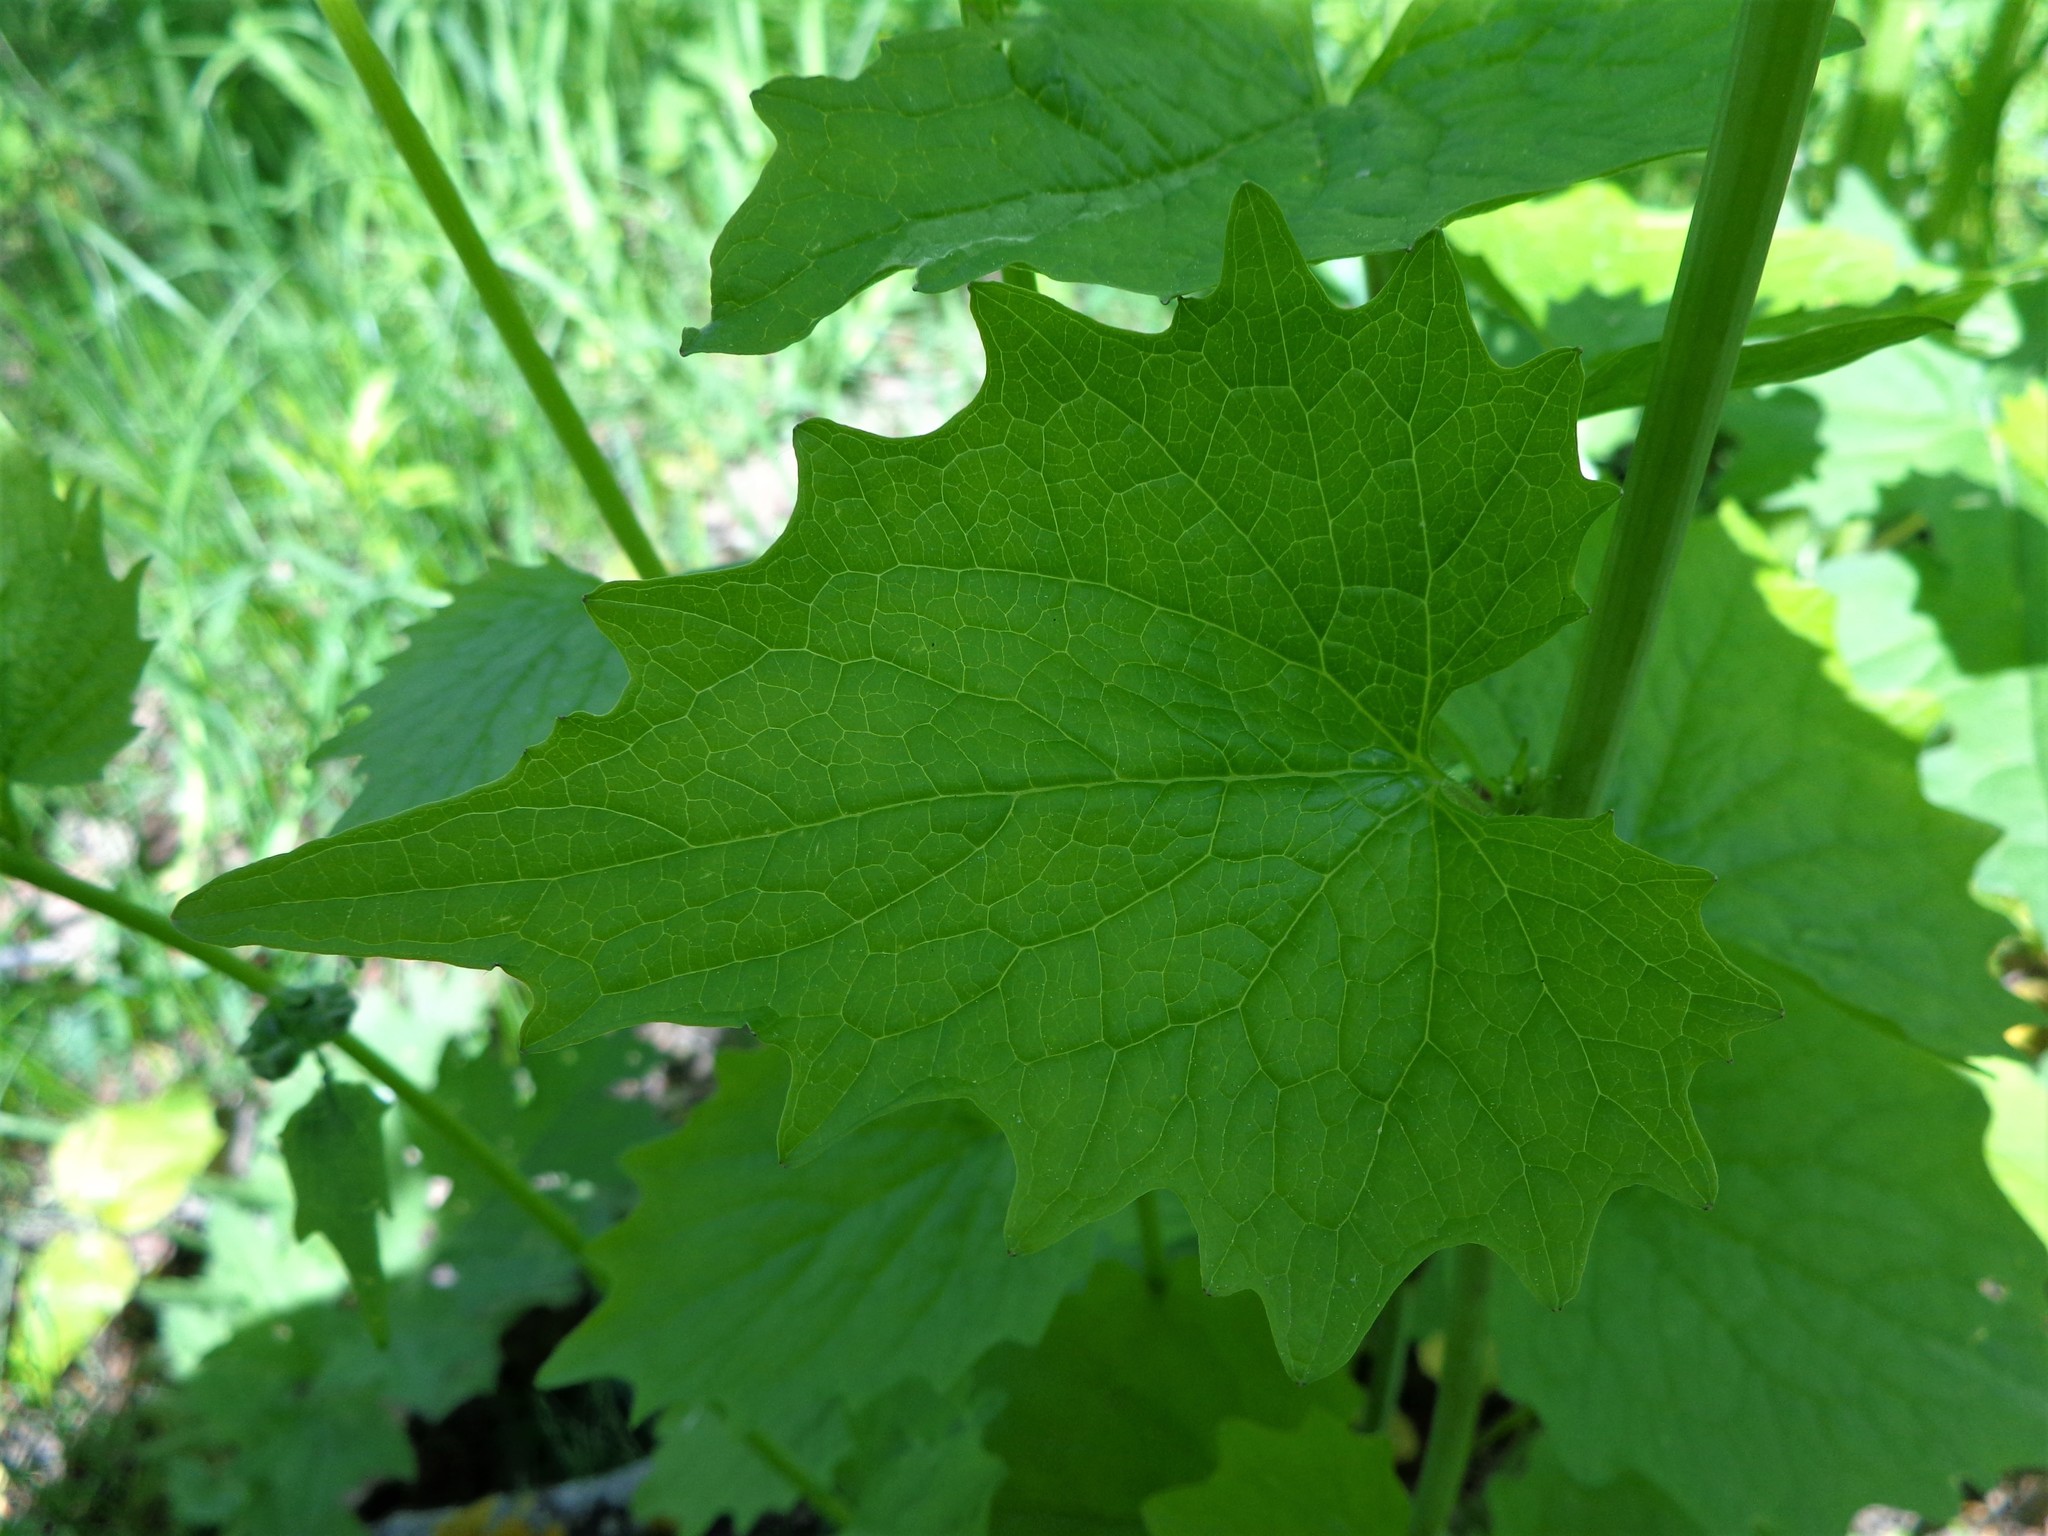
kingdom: Plantae
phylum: Tracheophyta
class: Magnoliopsida
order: Brassicales
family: Brassicaceae
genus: Alliaria
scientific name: Alliaria petiolata
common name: Garlic mustard
